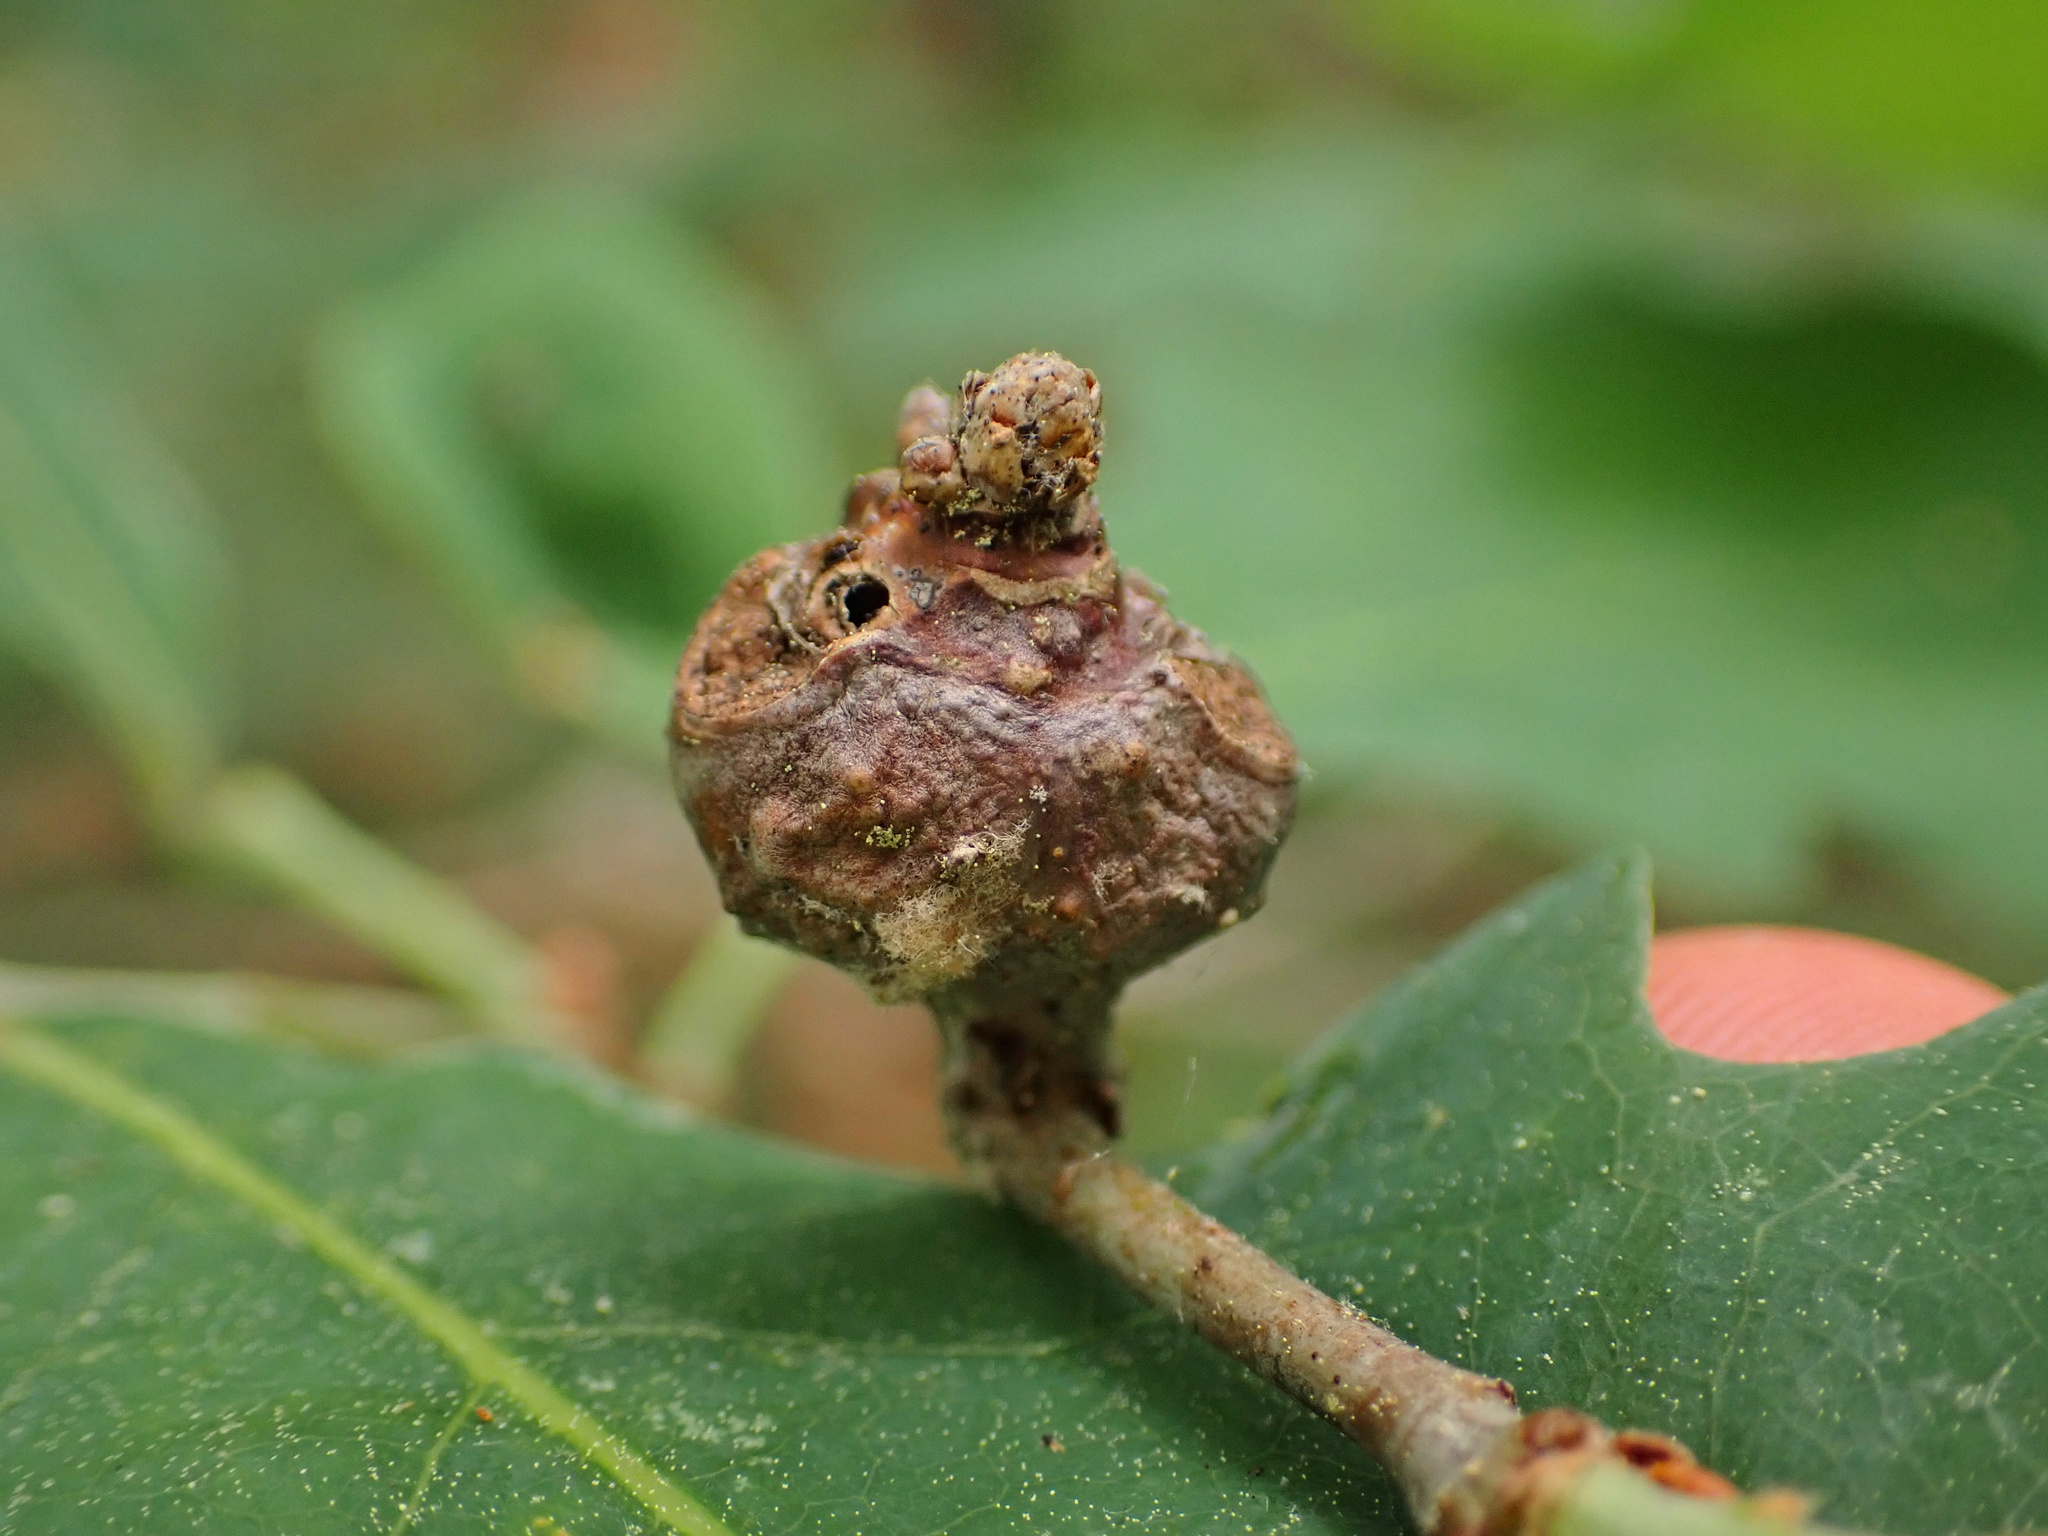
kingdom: Animalia
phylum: Arthropoda
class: Insecta
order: Hymenoptera
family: Cynipidae
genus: Neuroterus
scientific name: Neuroterus quercusbaccarum
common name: Common spangle gall
